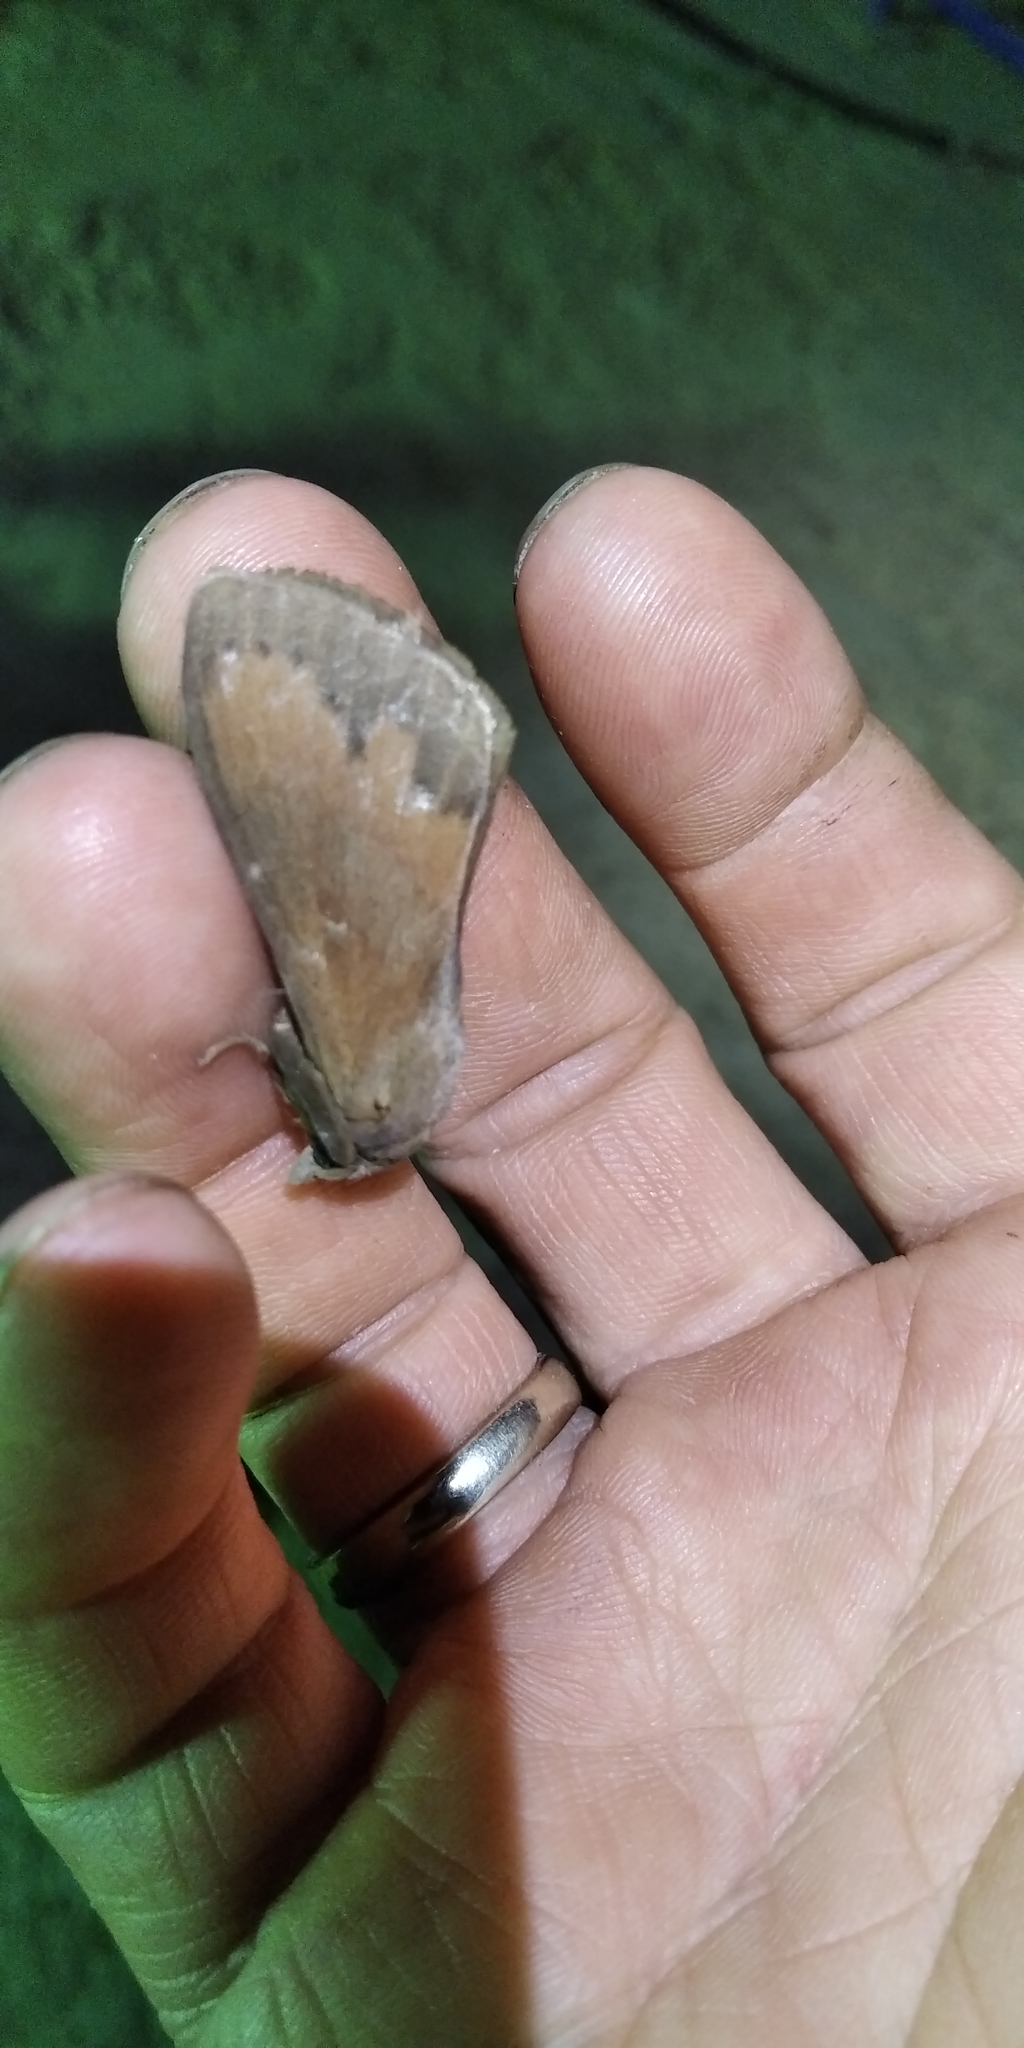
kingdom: Animalia
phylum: Arthropoda
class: Insecta
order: Lepidoptera
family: Lasiocampidae
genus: Dendrolimus
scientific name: Dendrolimus pini
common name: Pine-tree lappet
